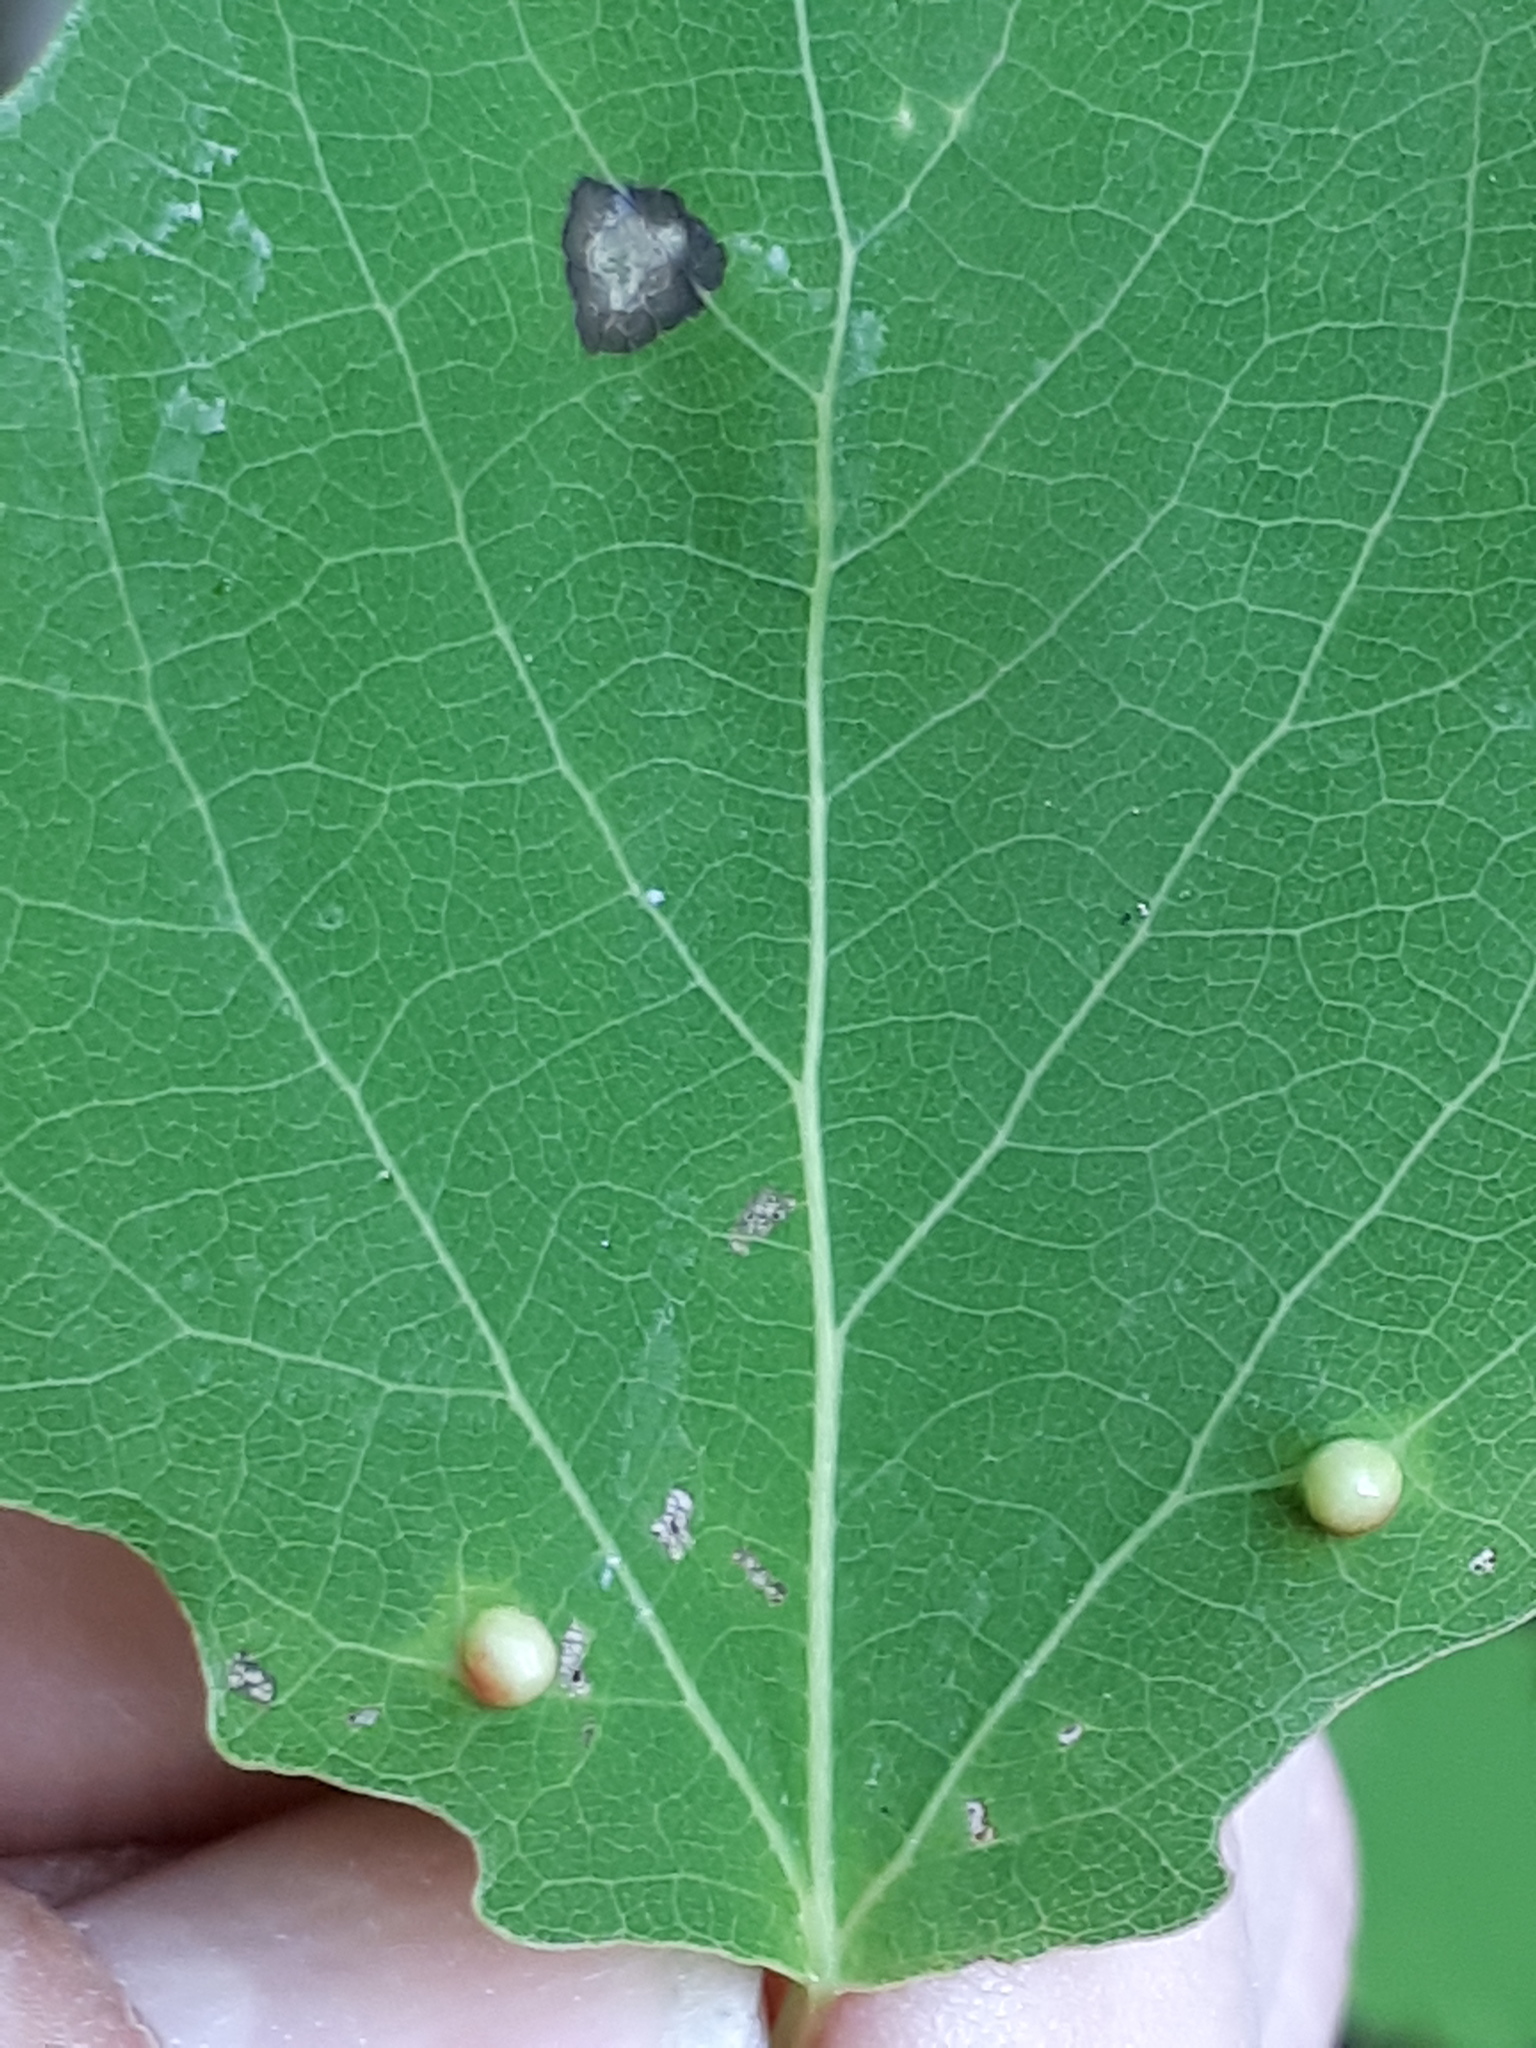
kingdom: Animalia
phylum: Arthropoda
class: Insecta
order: Diptera
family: Cecidomyiidae
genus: Harmandiola
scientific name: Harmandiola globuli
